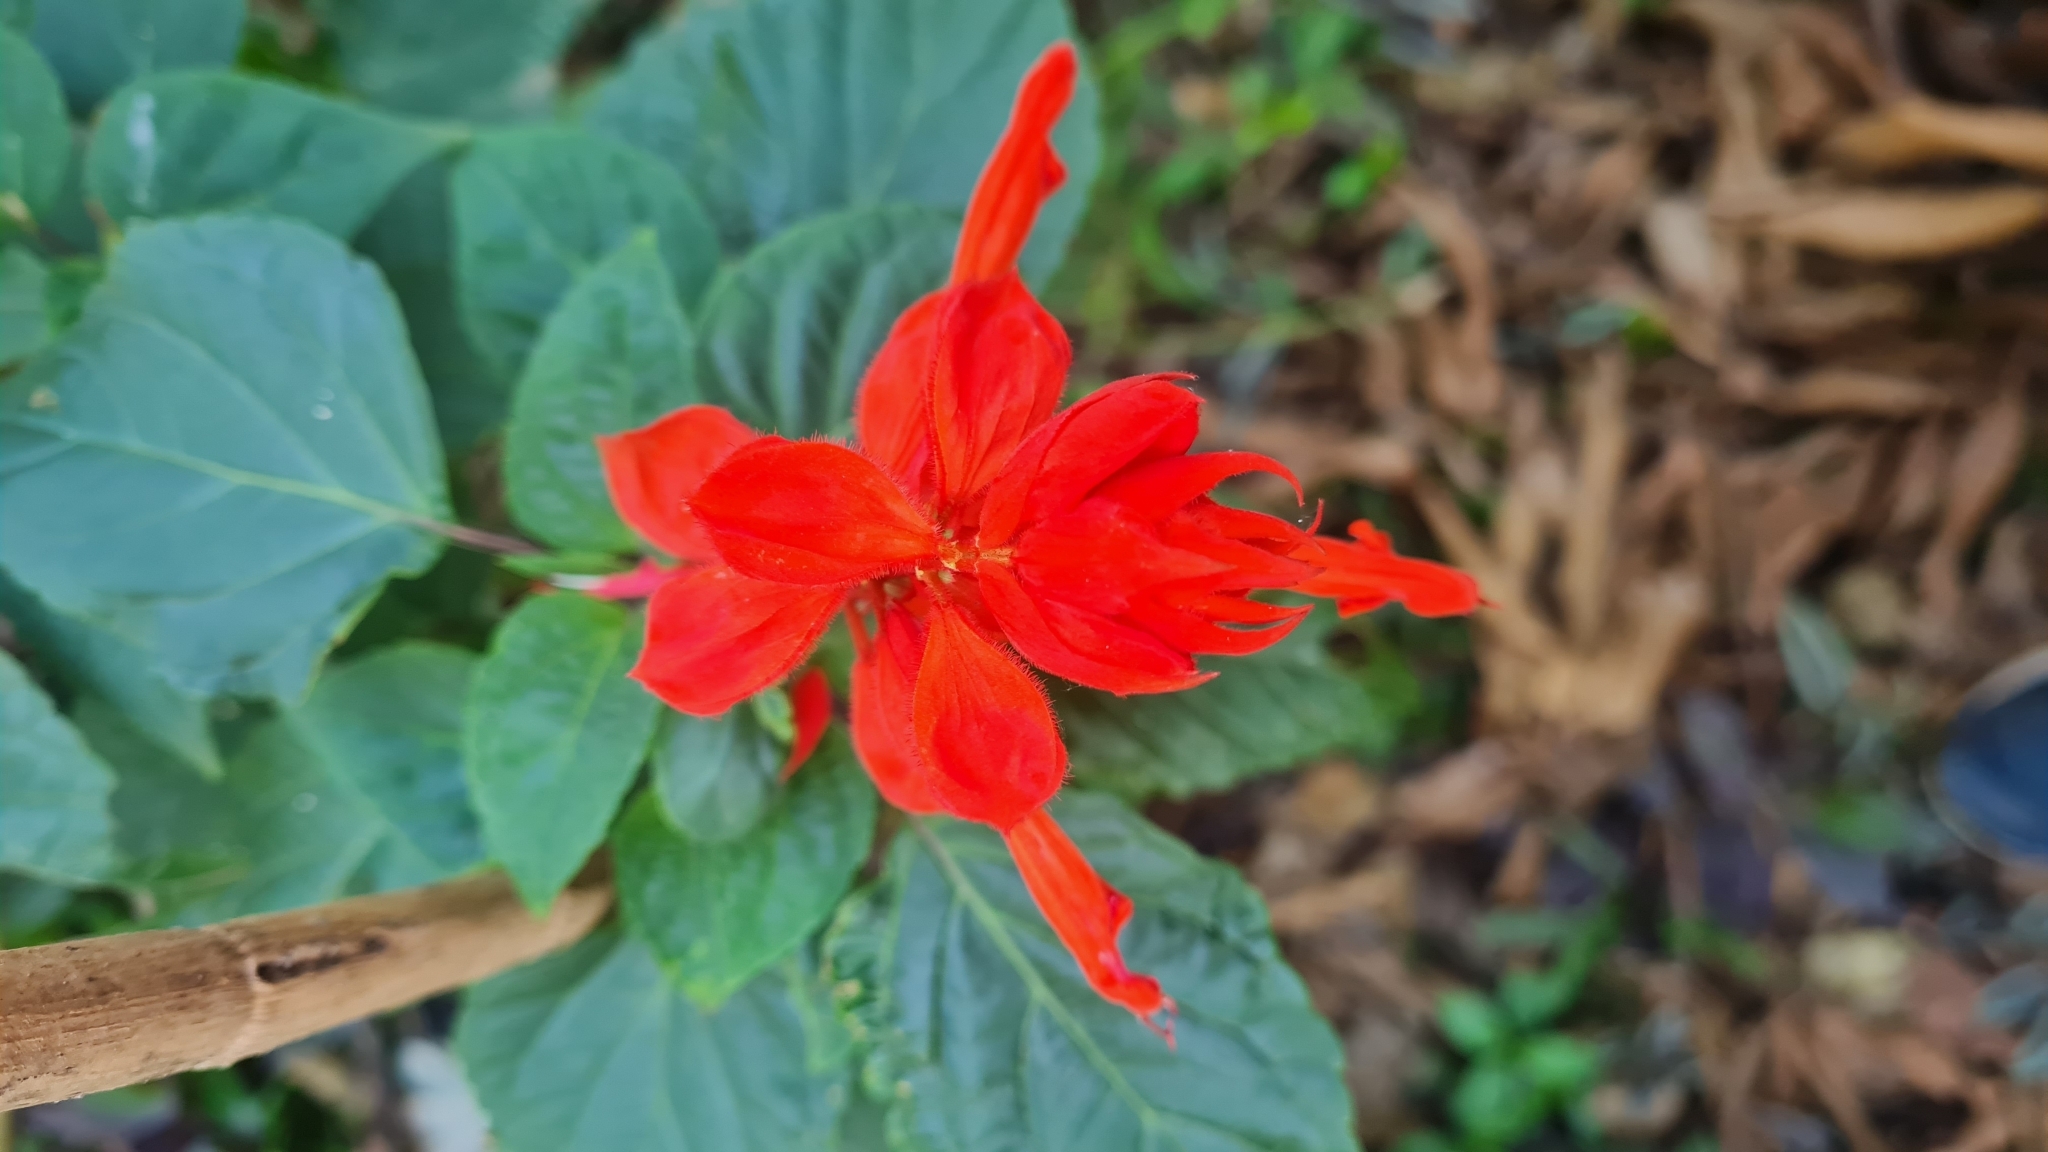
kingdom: Plantae
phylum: Tracheophyta
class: Magnoliopsida
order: Lamiales
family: Lamiaceae
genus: Salvia
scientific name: Salvia splendens
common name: Scarlet sage
